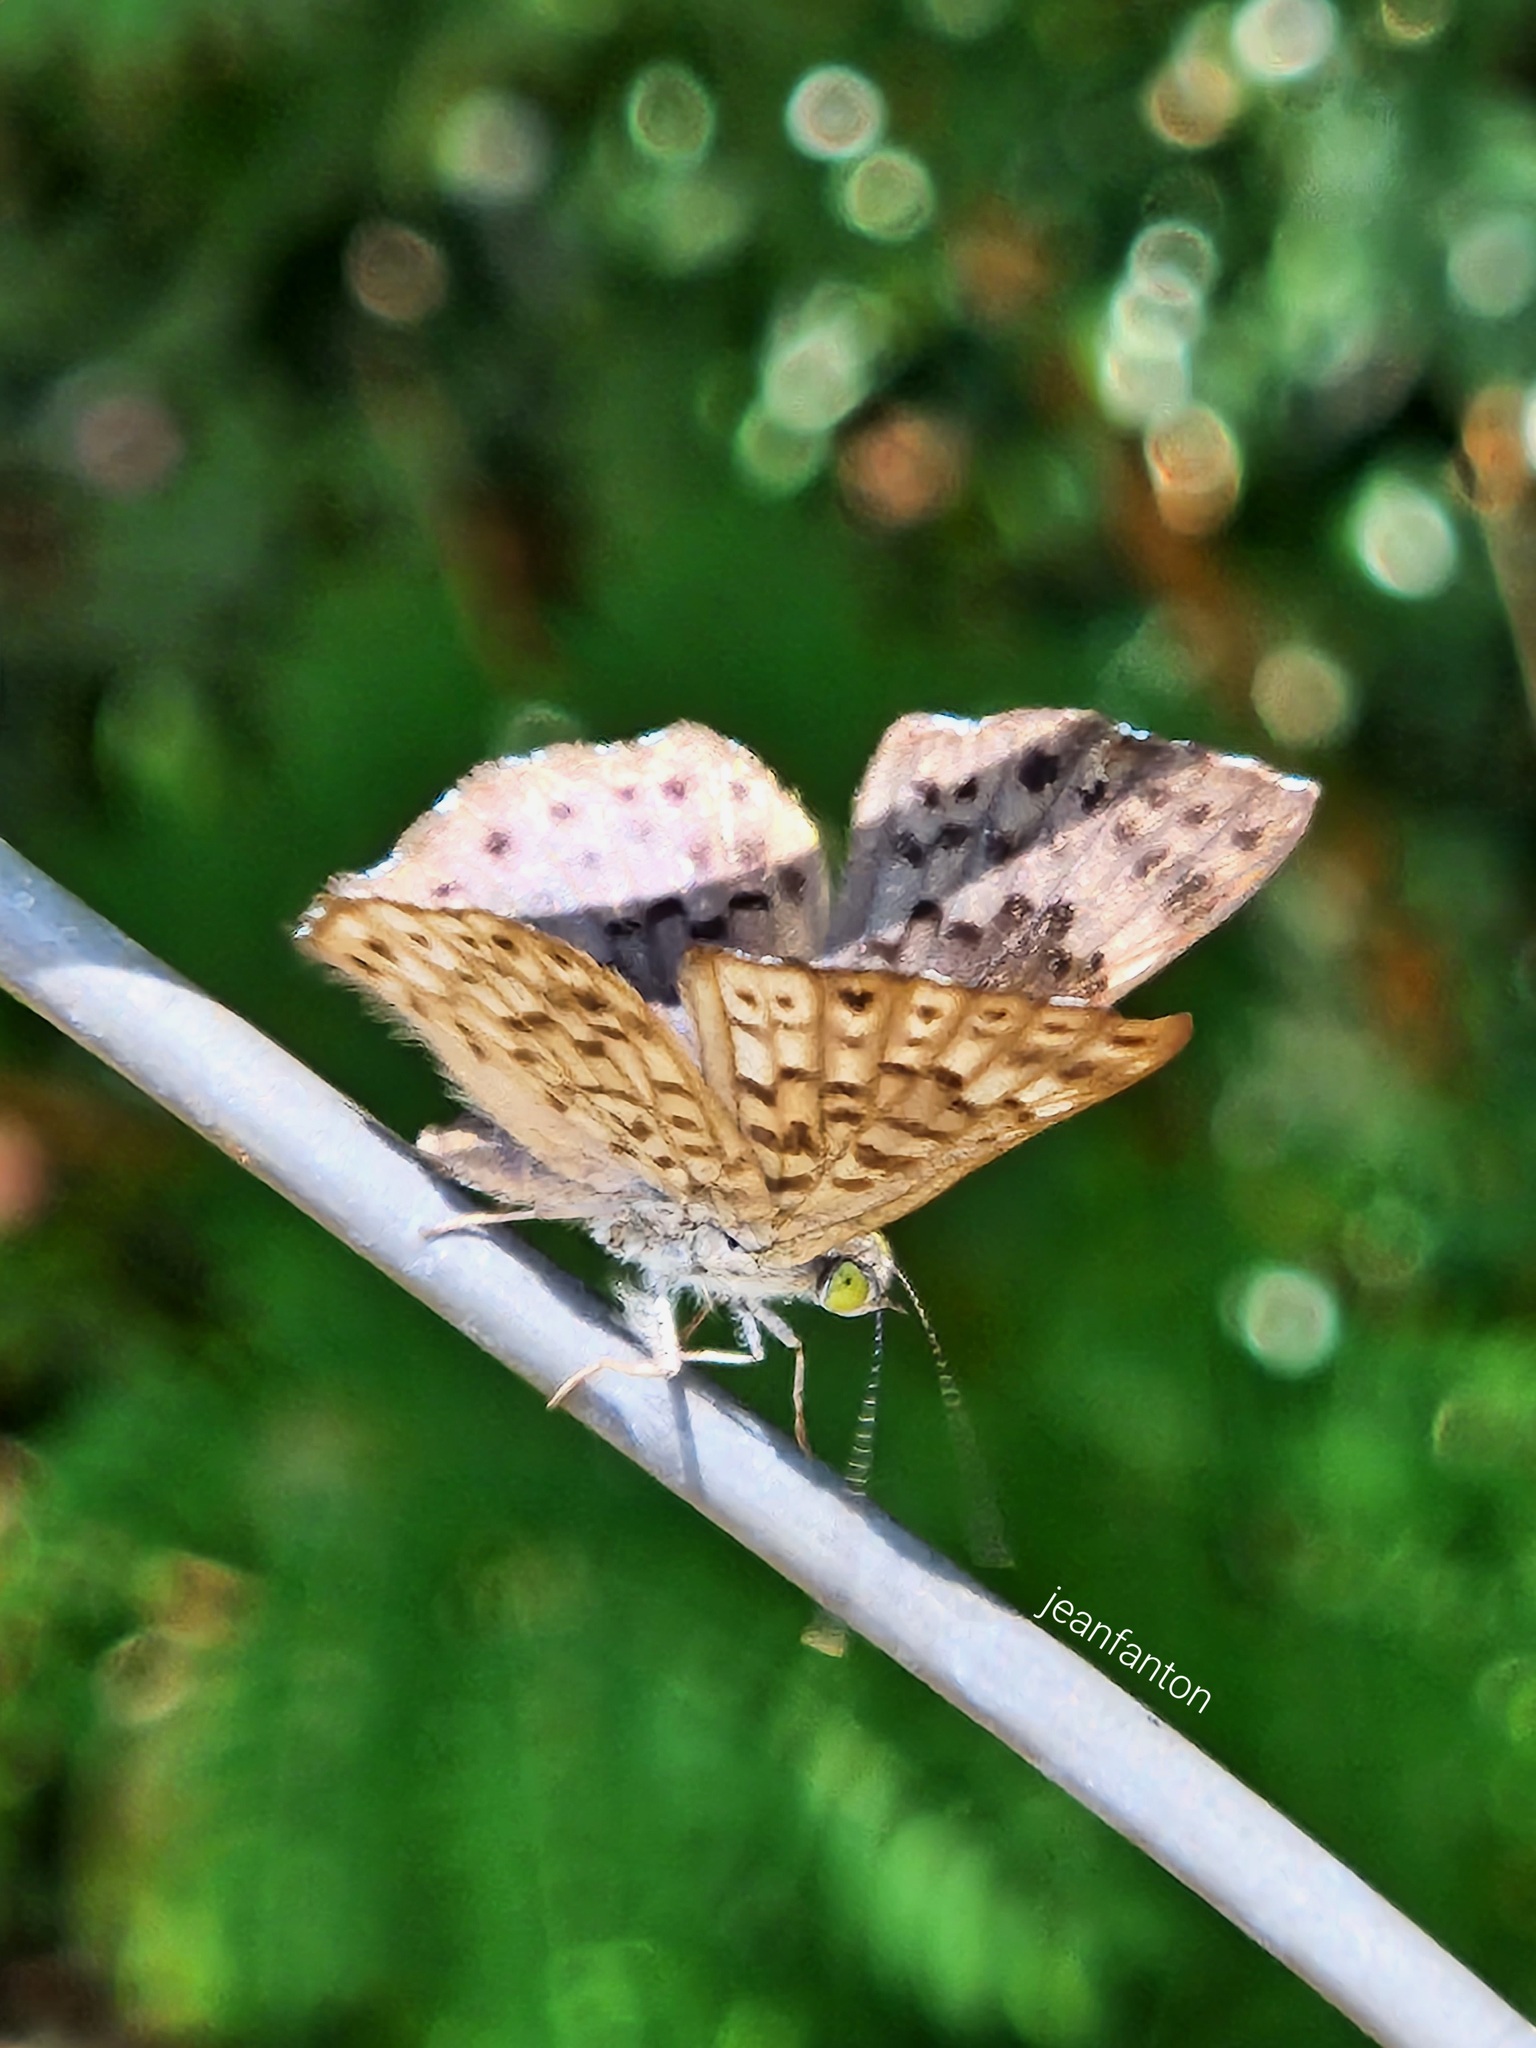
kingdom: Animalia
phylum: Arthropoda
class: Insecta
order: Lepidoptera
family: Riodinidae
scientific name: Riodinidae
